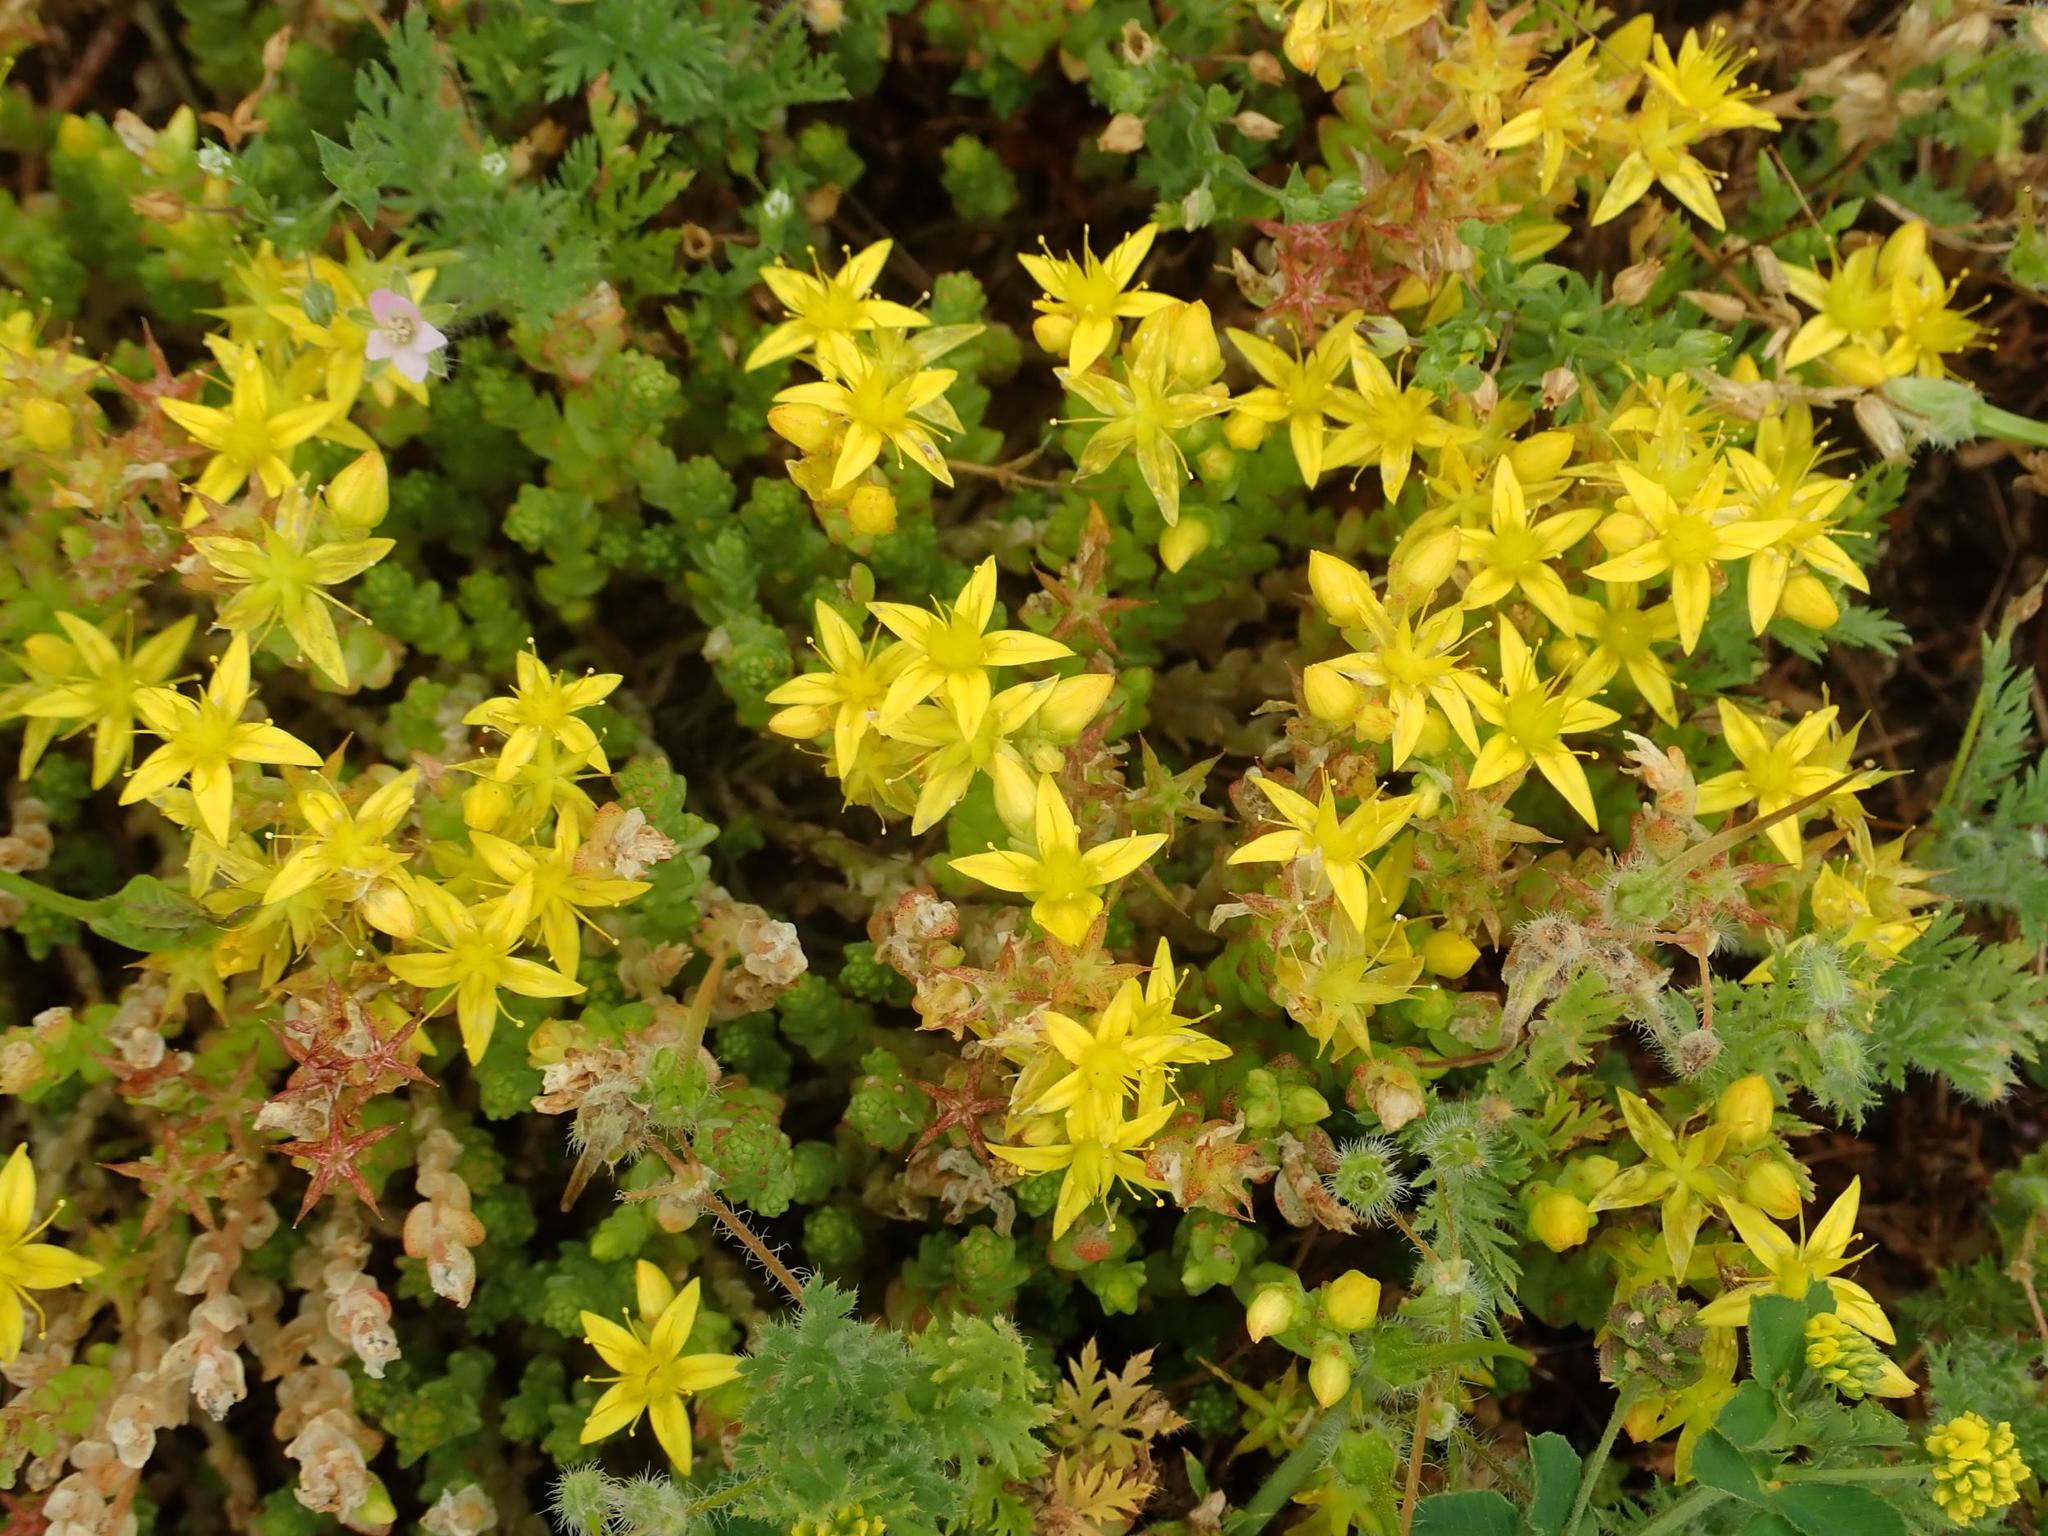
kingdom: Plantae
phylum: Tracheophyta
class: Magnoliopsida
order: Saxifragales
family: Crassulaceae
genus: Sedum
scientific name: Sedum acre
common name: Biting stonecrop
